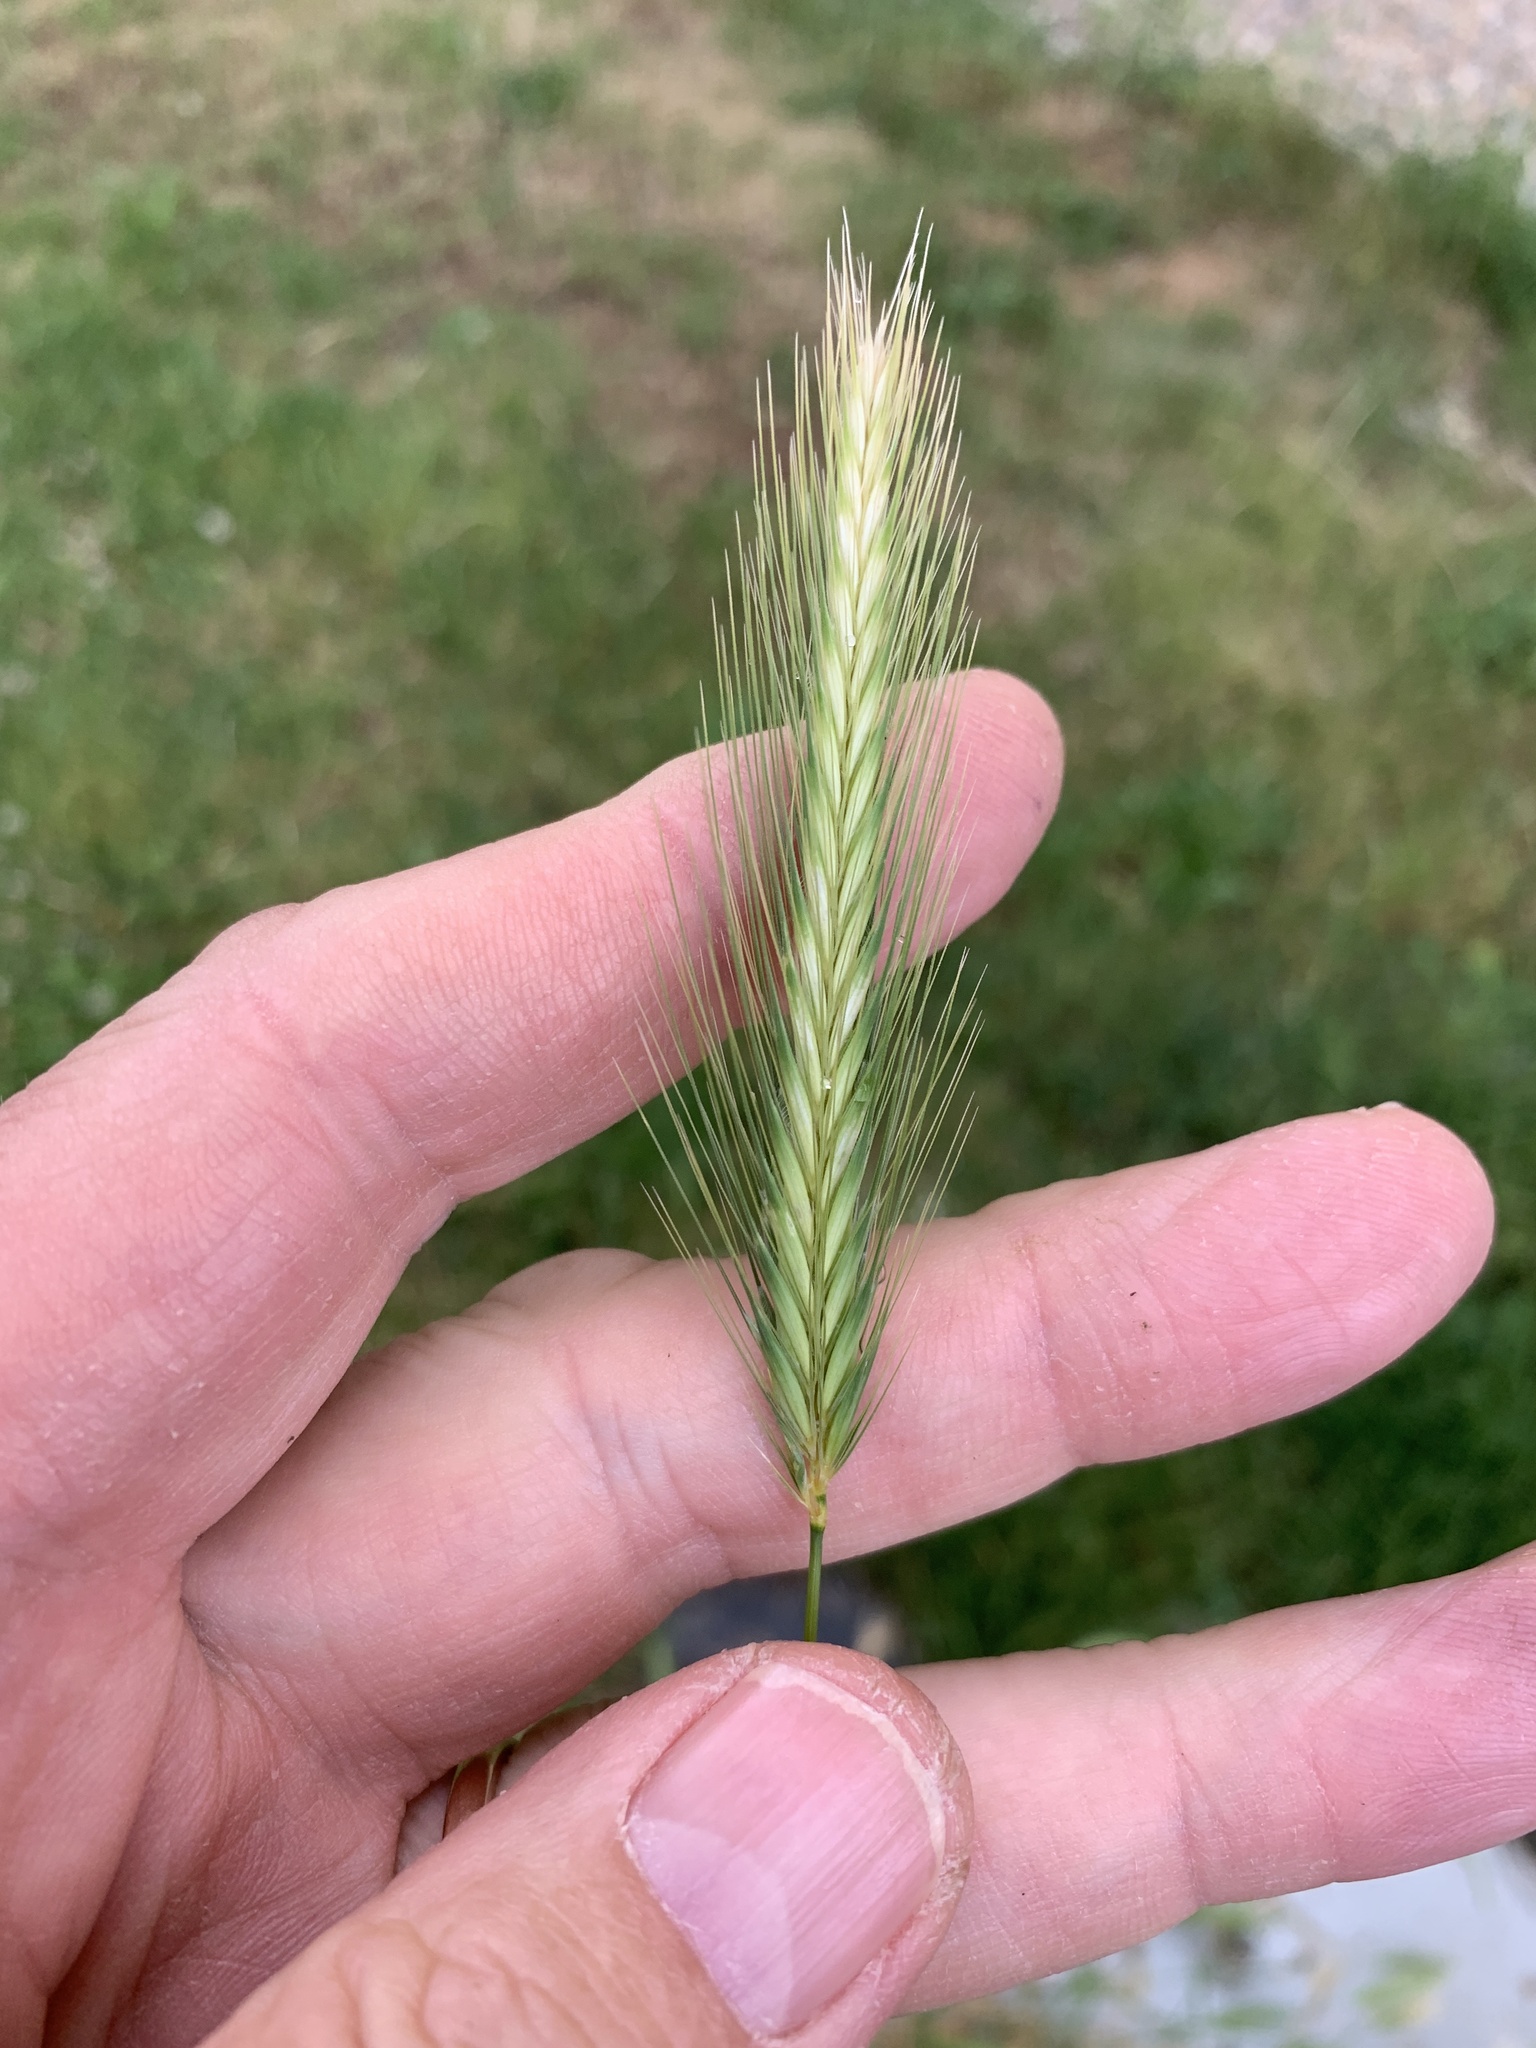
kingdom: Plantae
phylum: Tracheophyta
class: Liliopsida
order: Poales
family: Poaceae
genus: Hordeum
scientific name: Hordeum murinum
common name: Wall barley
